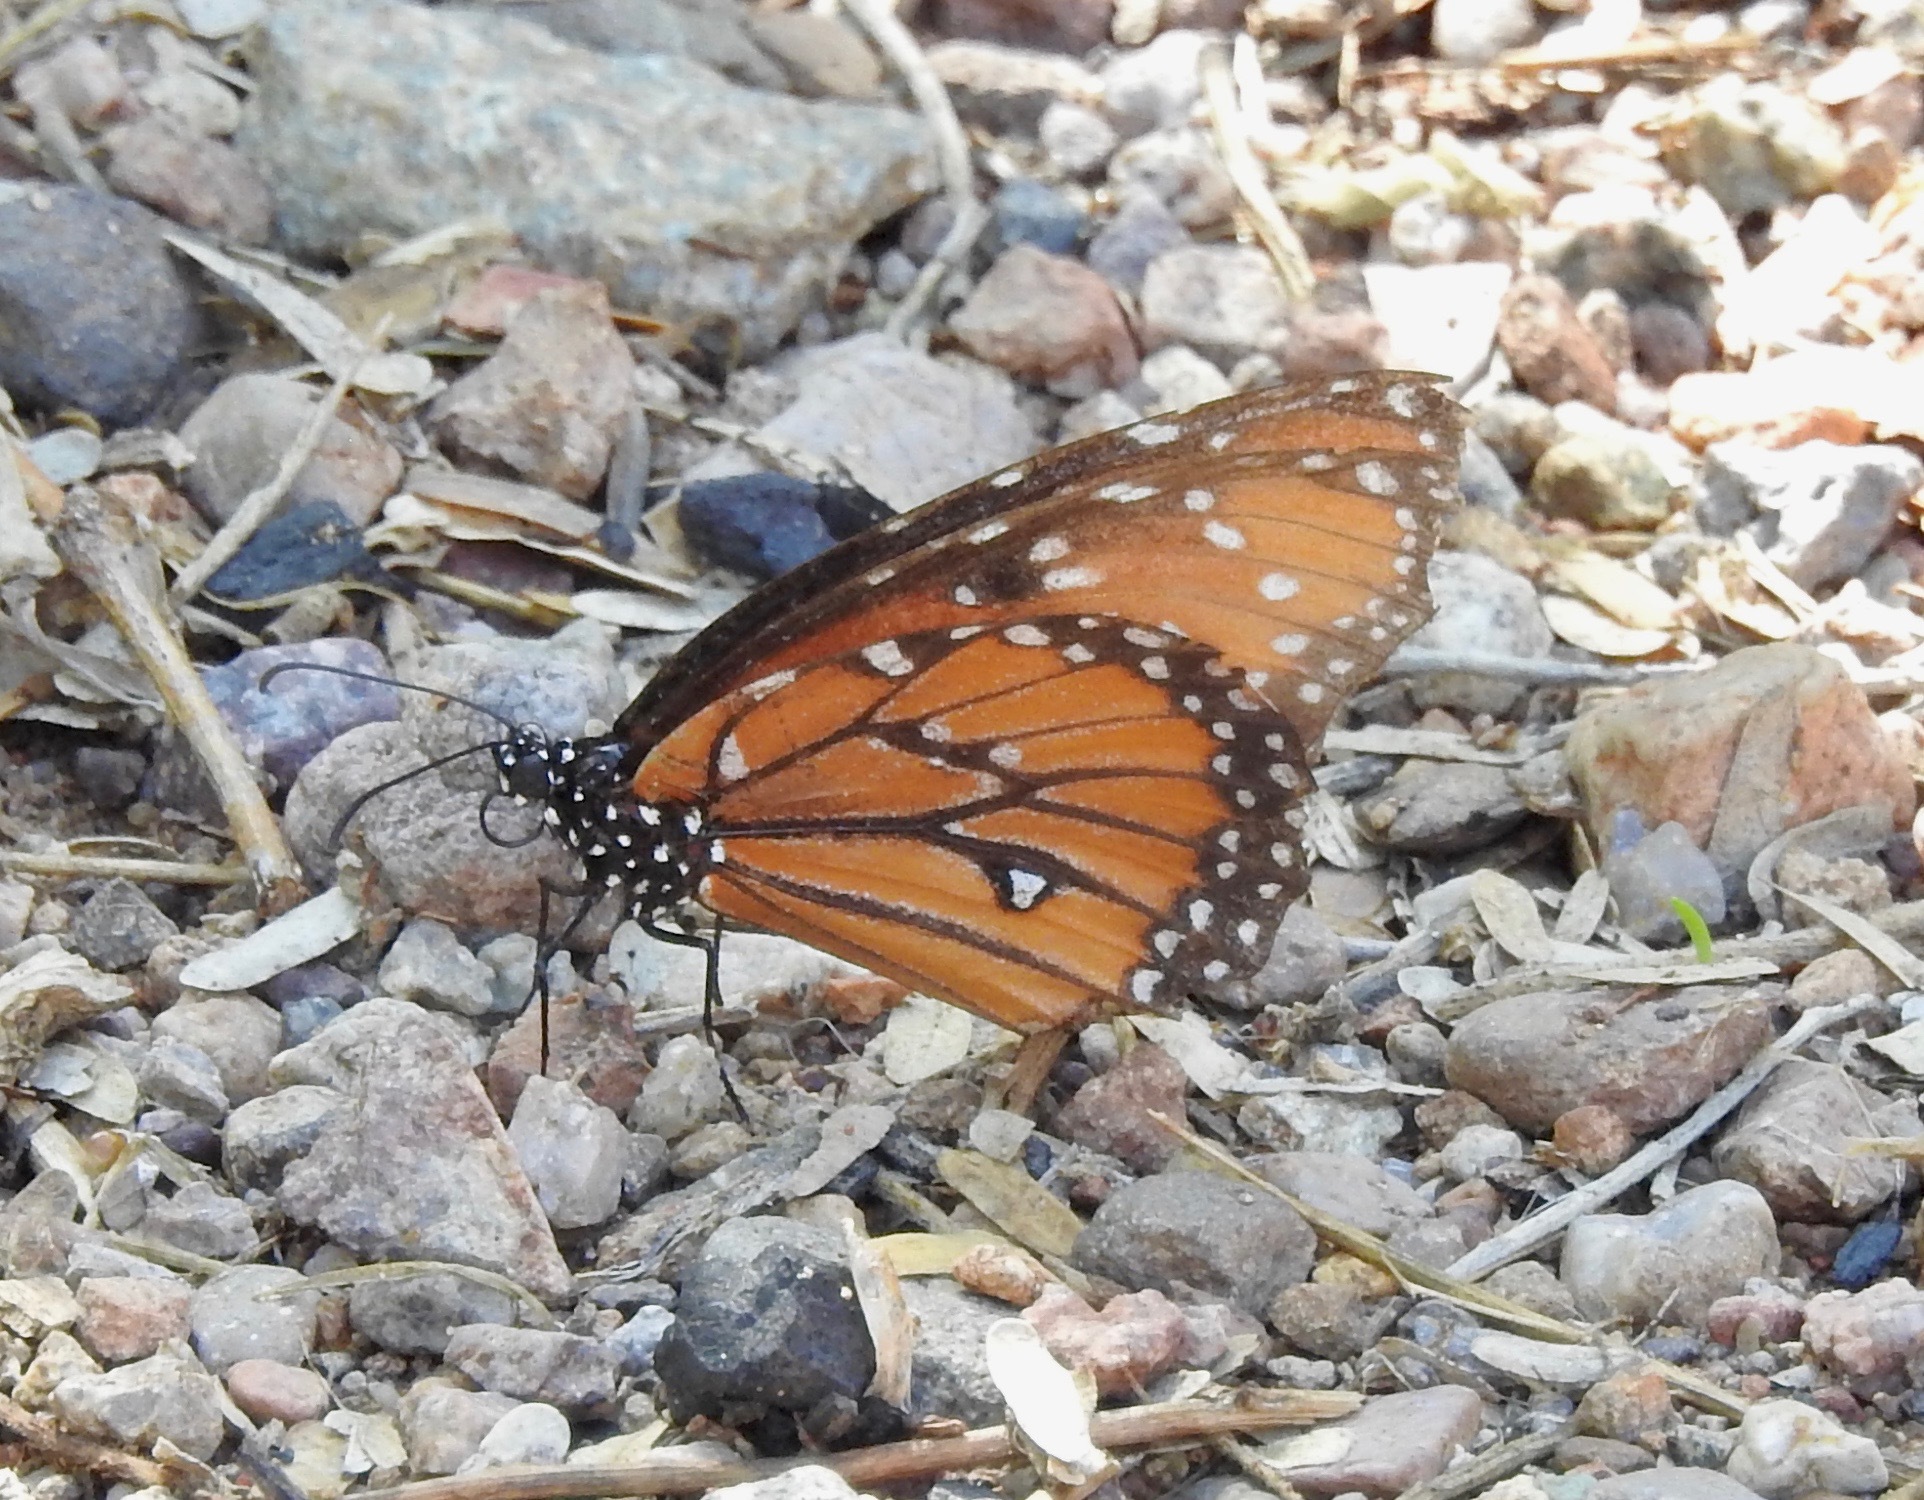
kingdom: Animalia
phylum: Arthropoda
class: Insecta
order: Lepidoptera
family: Nymphalidae
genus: Danaus
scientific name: Danaus gilippus
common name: Queen
